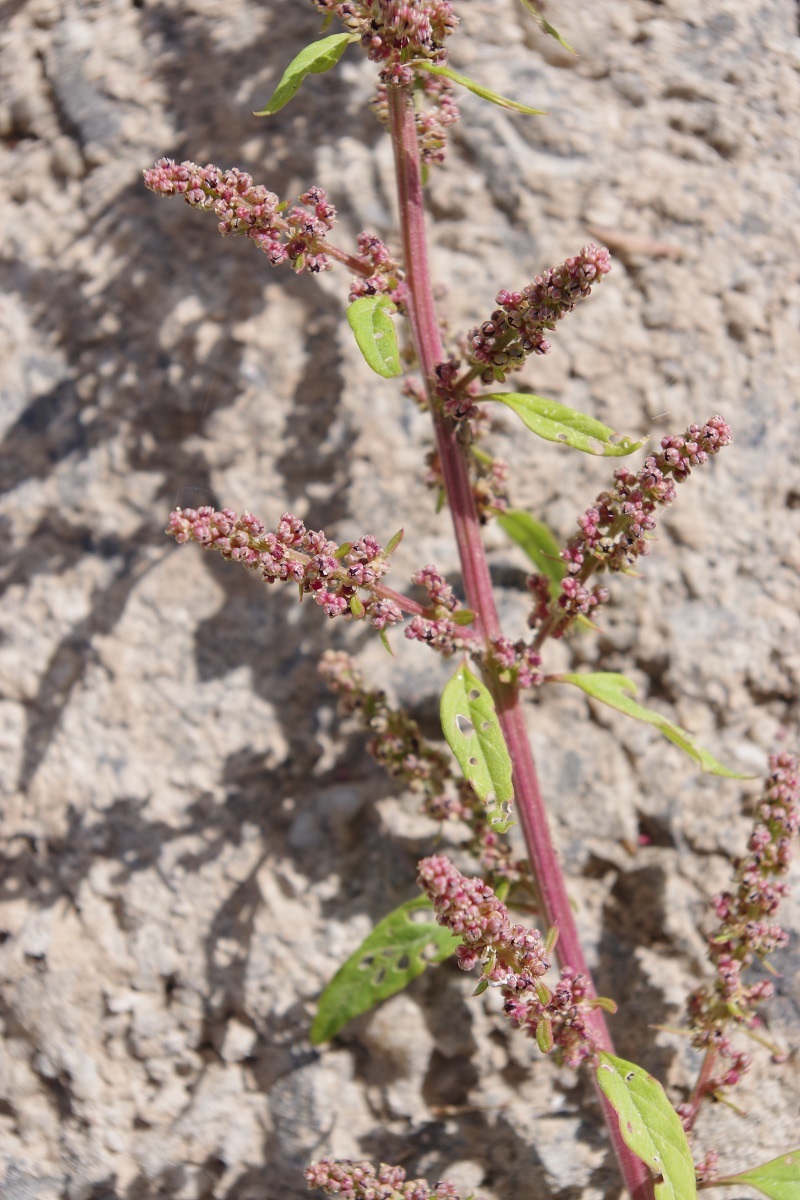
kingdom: Plantae
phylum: Tracheophyta
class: Magnoliopsida
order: Caryophyllales
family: Amaranthaceae
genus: Lipandra
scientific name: Lipandra polysperma
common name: Many-seed goosefoot
